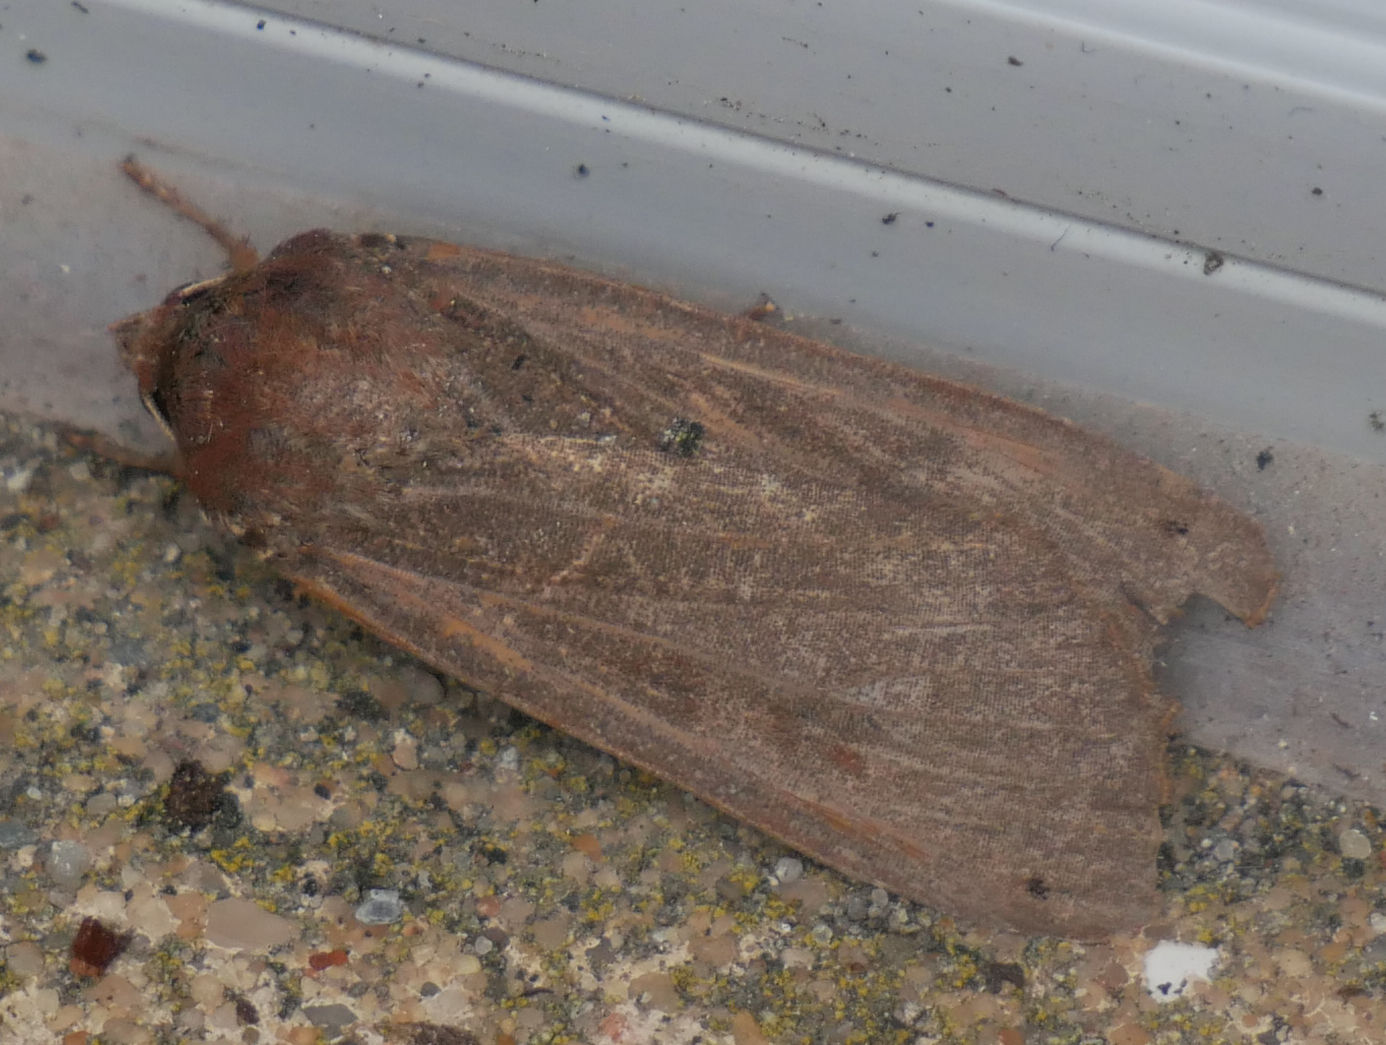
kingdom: Animalia
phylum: Arthropoda
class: Insecta
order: Lepidoptera
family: Noctuidae
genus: Noctua
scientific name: Noctua pronuba
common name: Large yellow underwing
